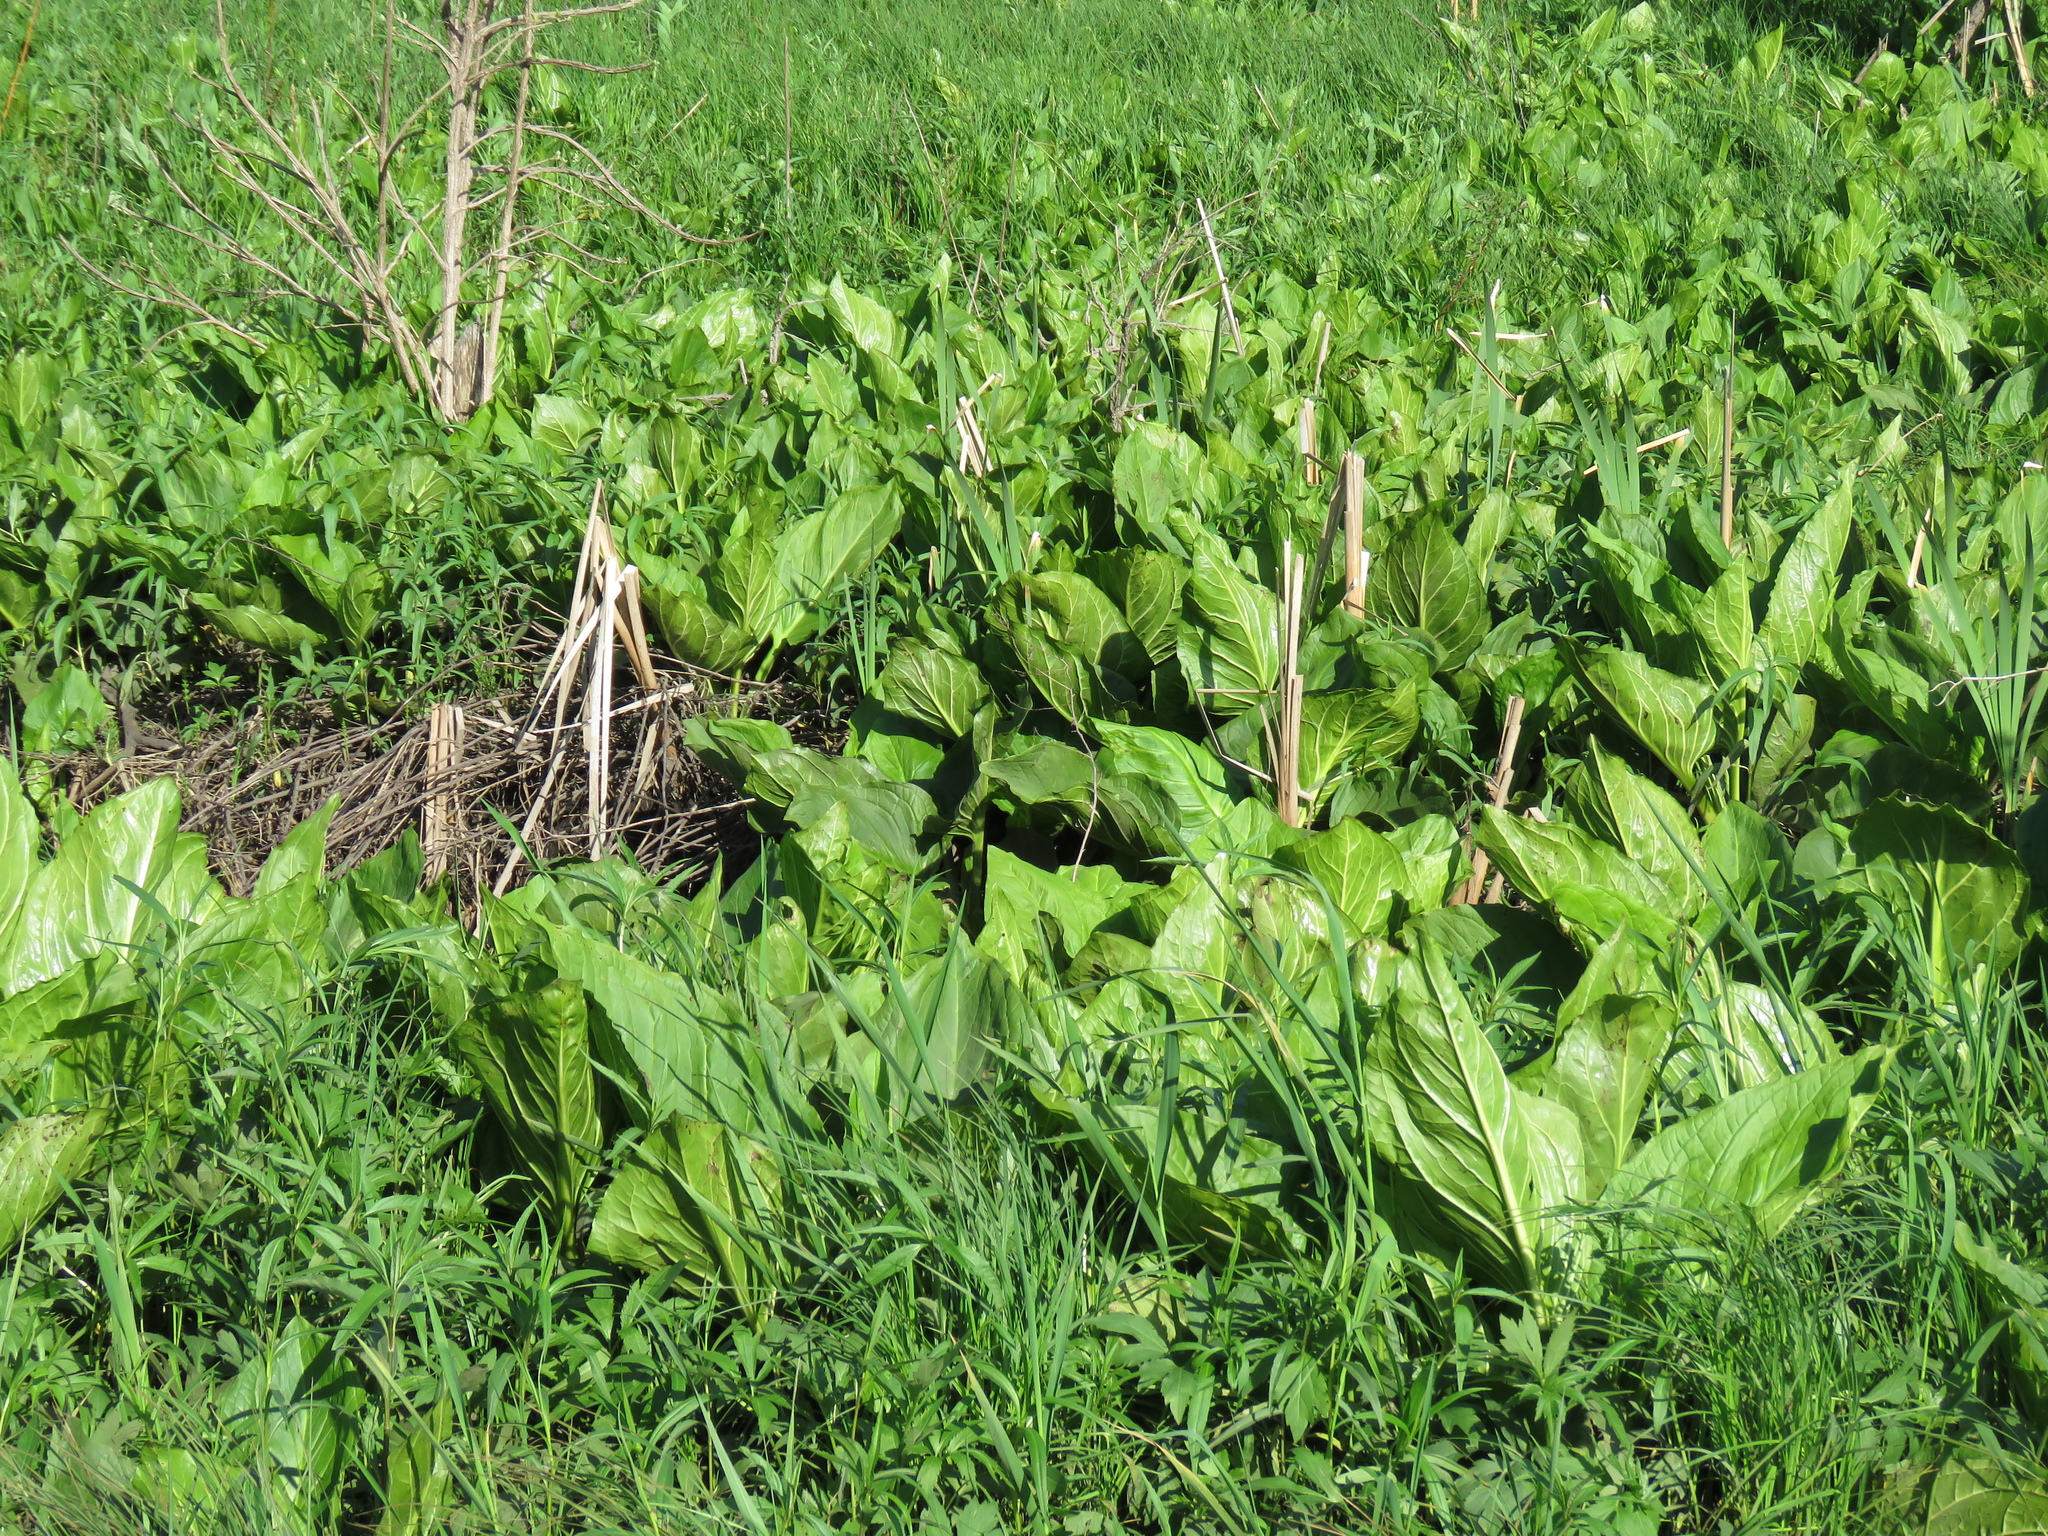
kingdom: Plantae
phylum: Tracheophyta
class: Liliopsida
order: Alismatales
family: Araceae
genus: Symplocarpus
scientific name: Symplocarpus foetidus
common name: Eastern skunk cabbage
